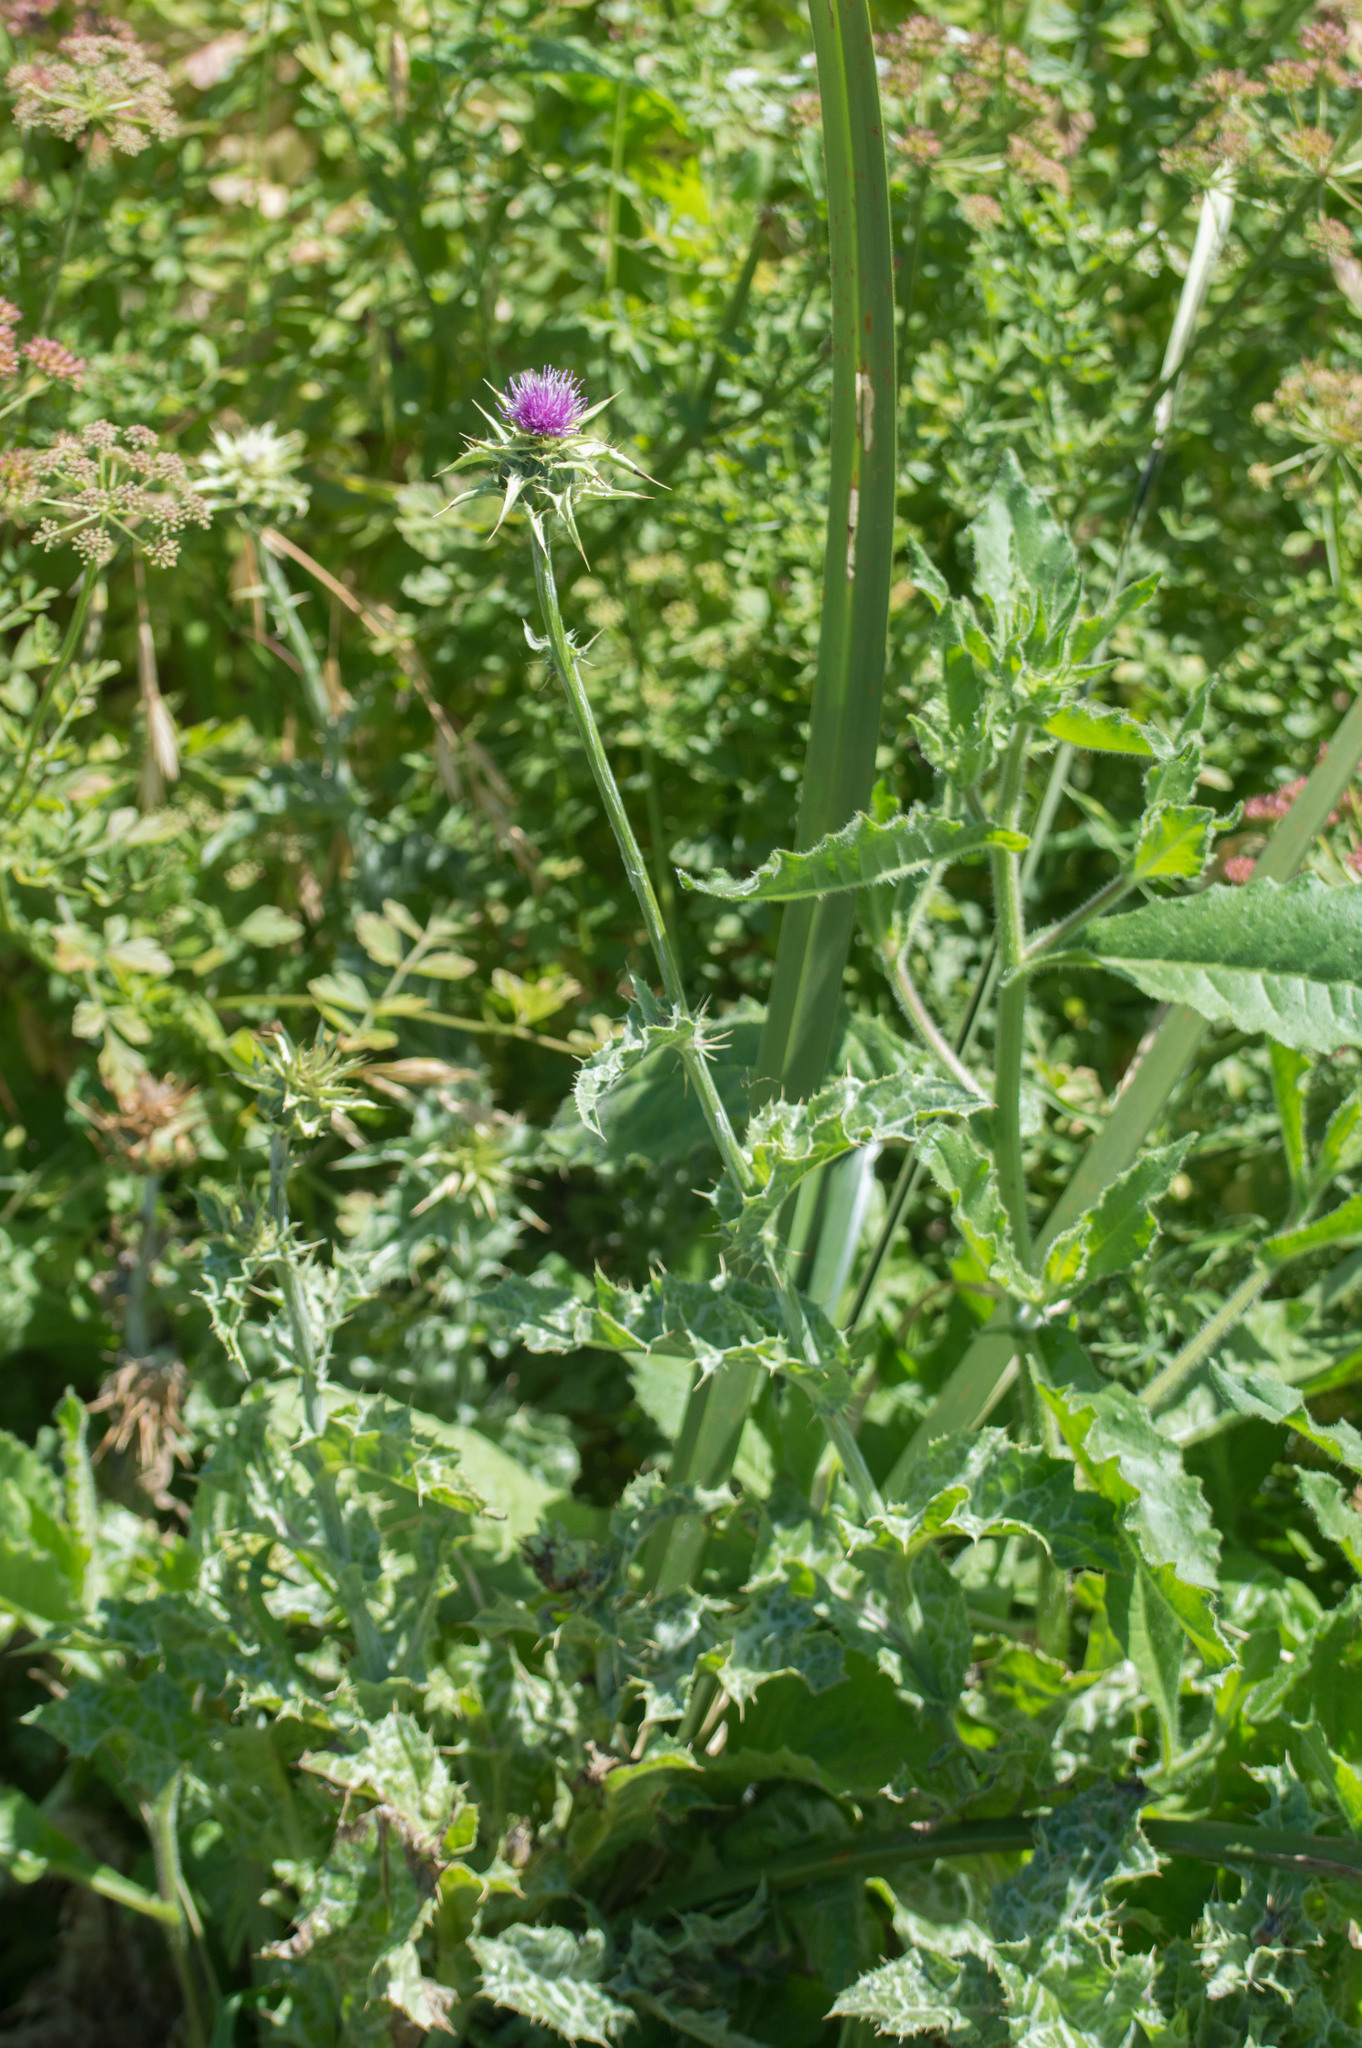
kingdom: Plantae
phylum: Tracheophyta
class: Magnoliopsida
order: Asterales
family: Asteraceae
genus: Silybum
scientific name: Silybum marianum
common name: Milk thistle
